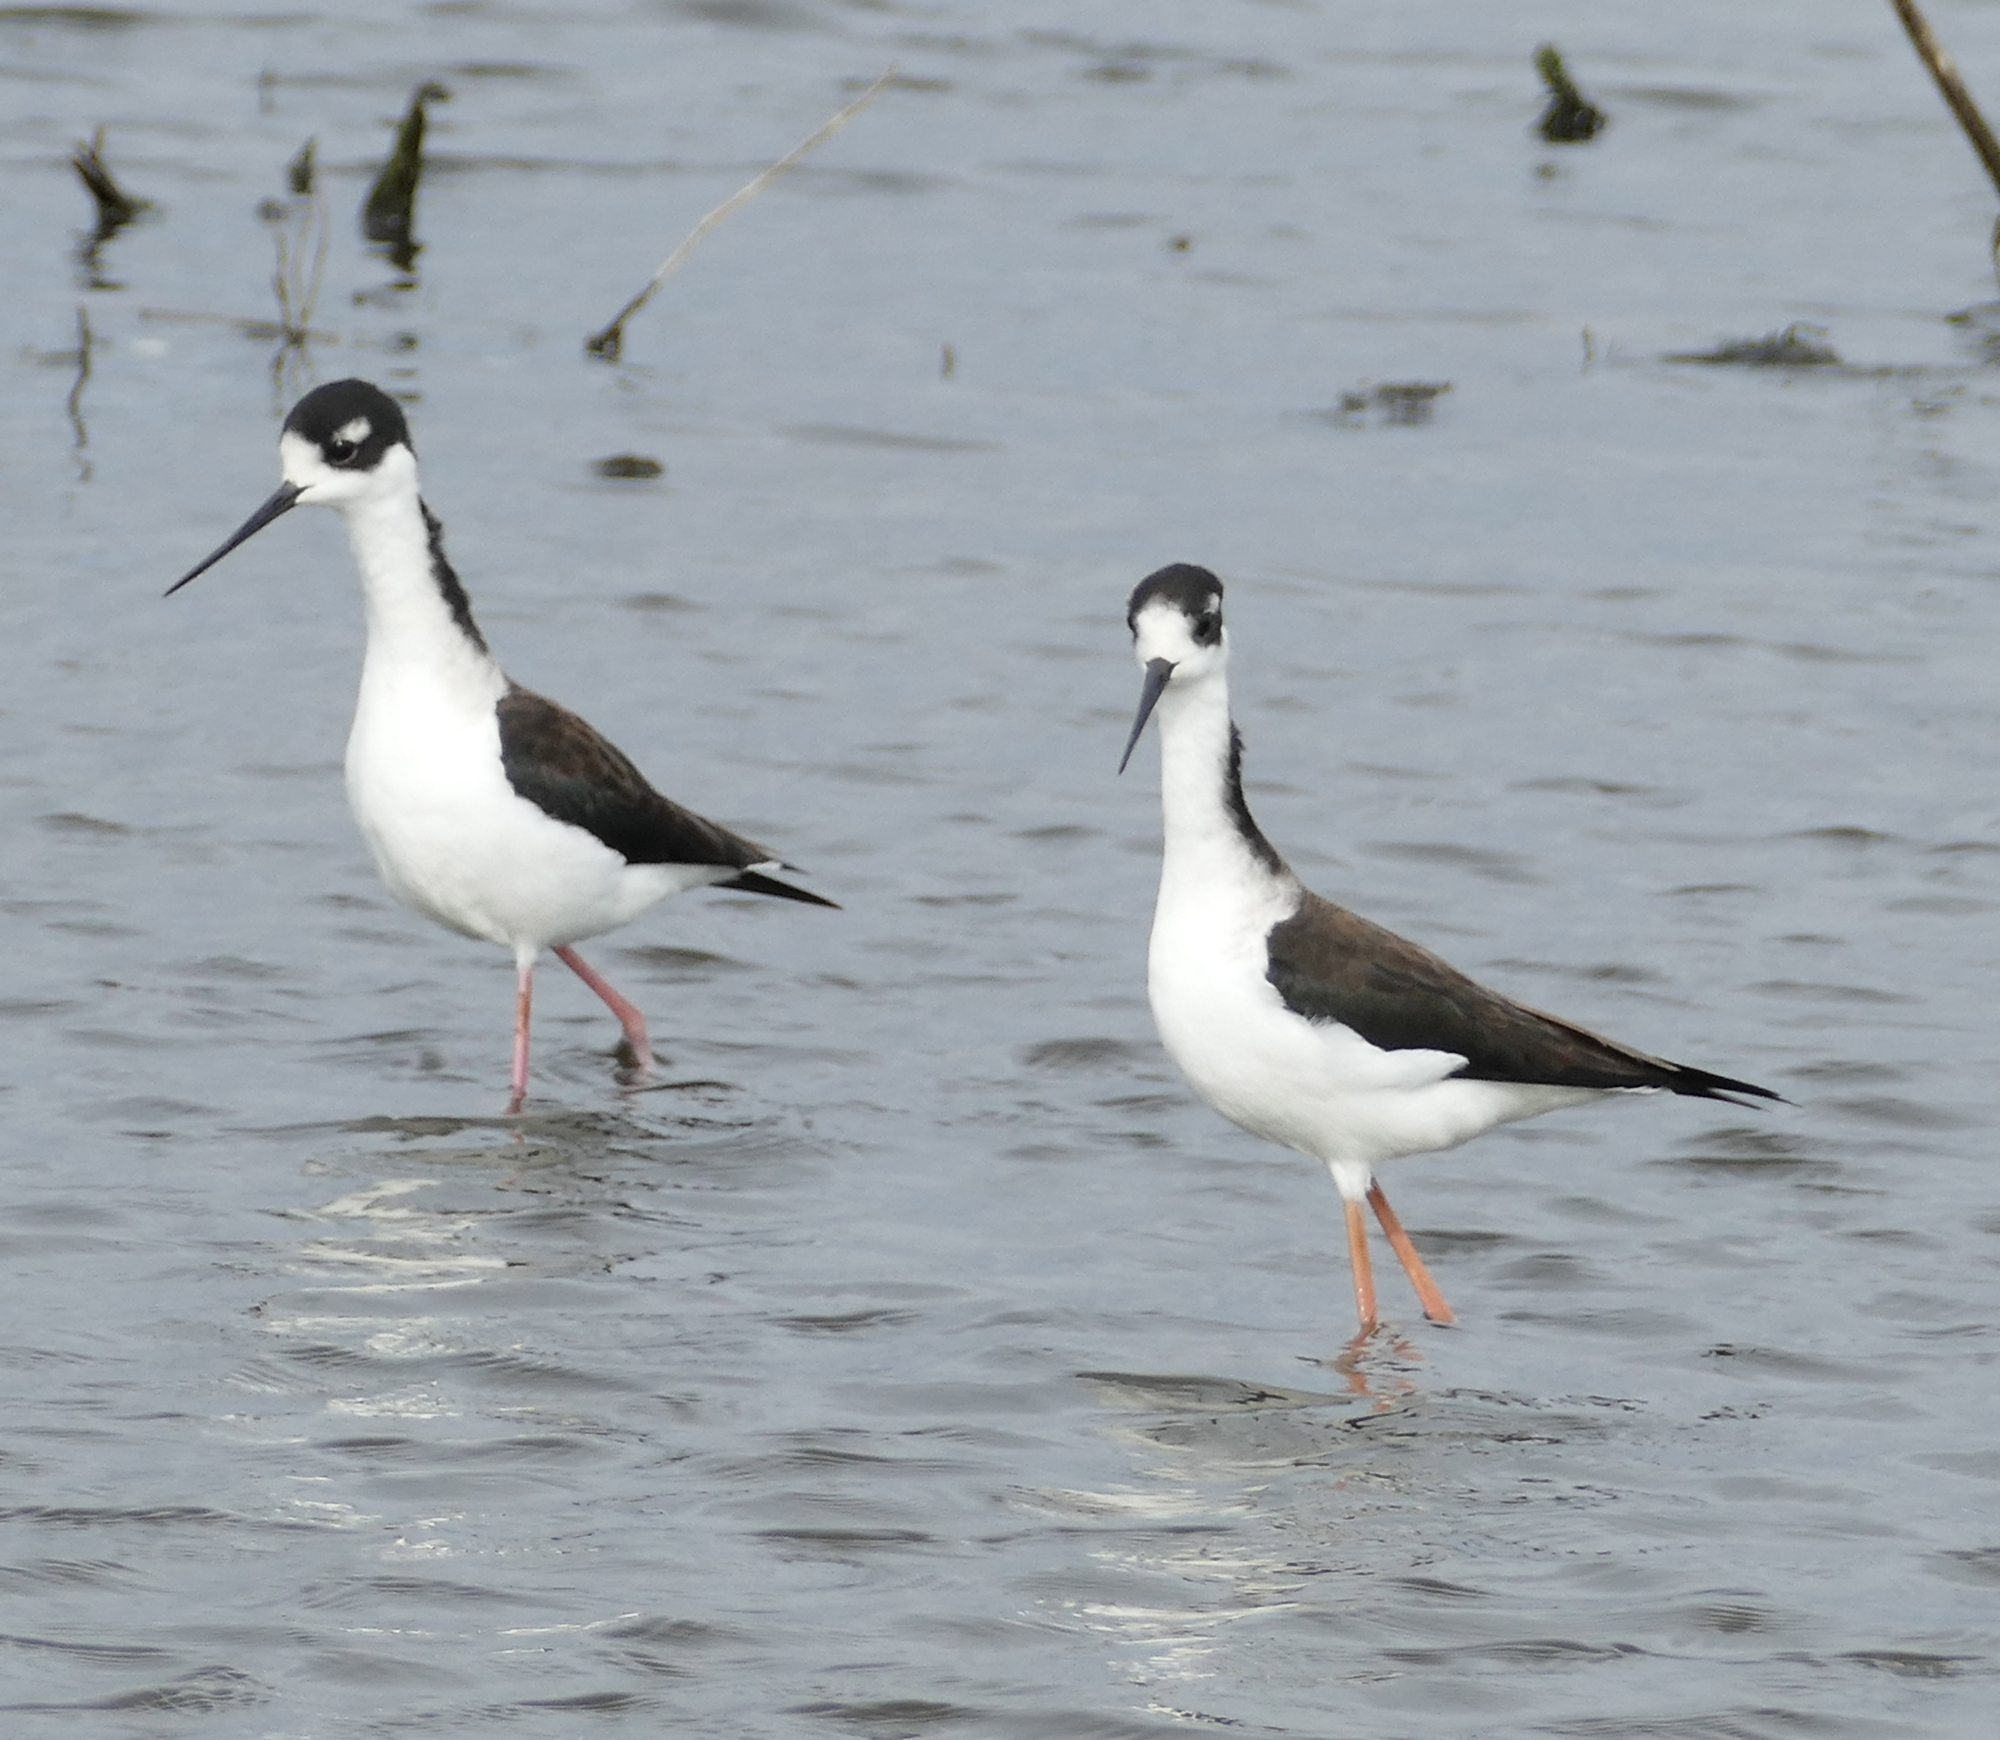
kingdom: Animalia
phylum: Chordata
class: Aves
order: Charadriiformes
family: Recurvirostridae
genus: Himantopus
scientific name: Himantopus mexicanus
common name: Black-necked stilt
